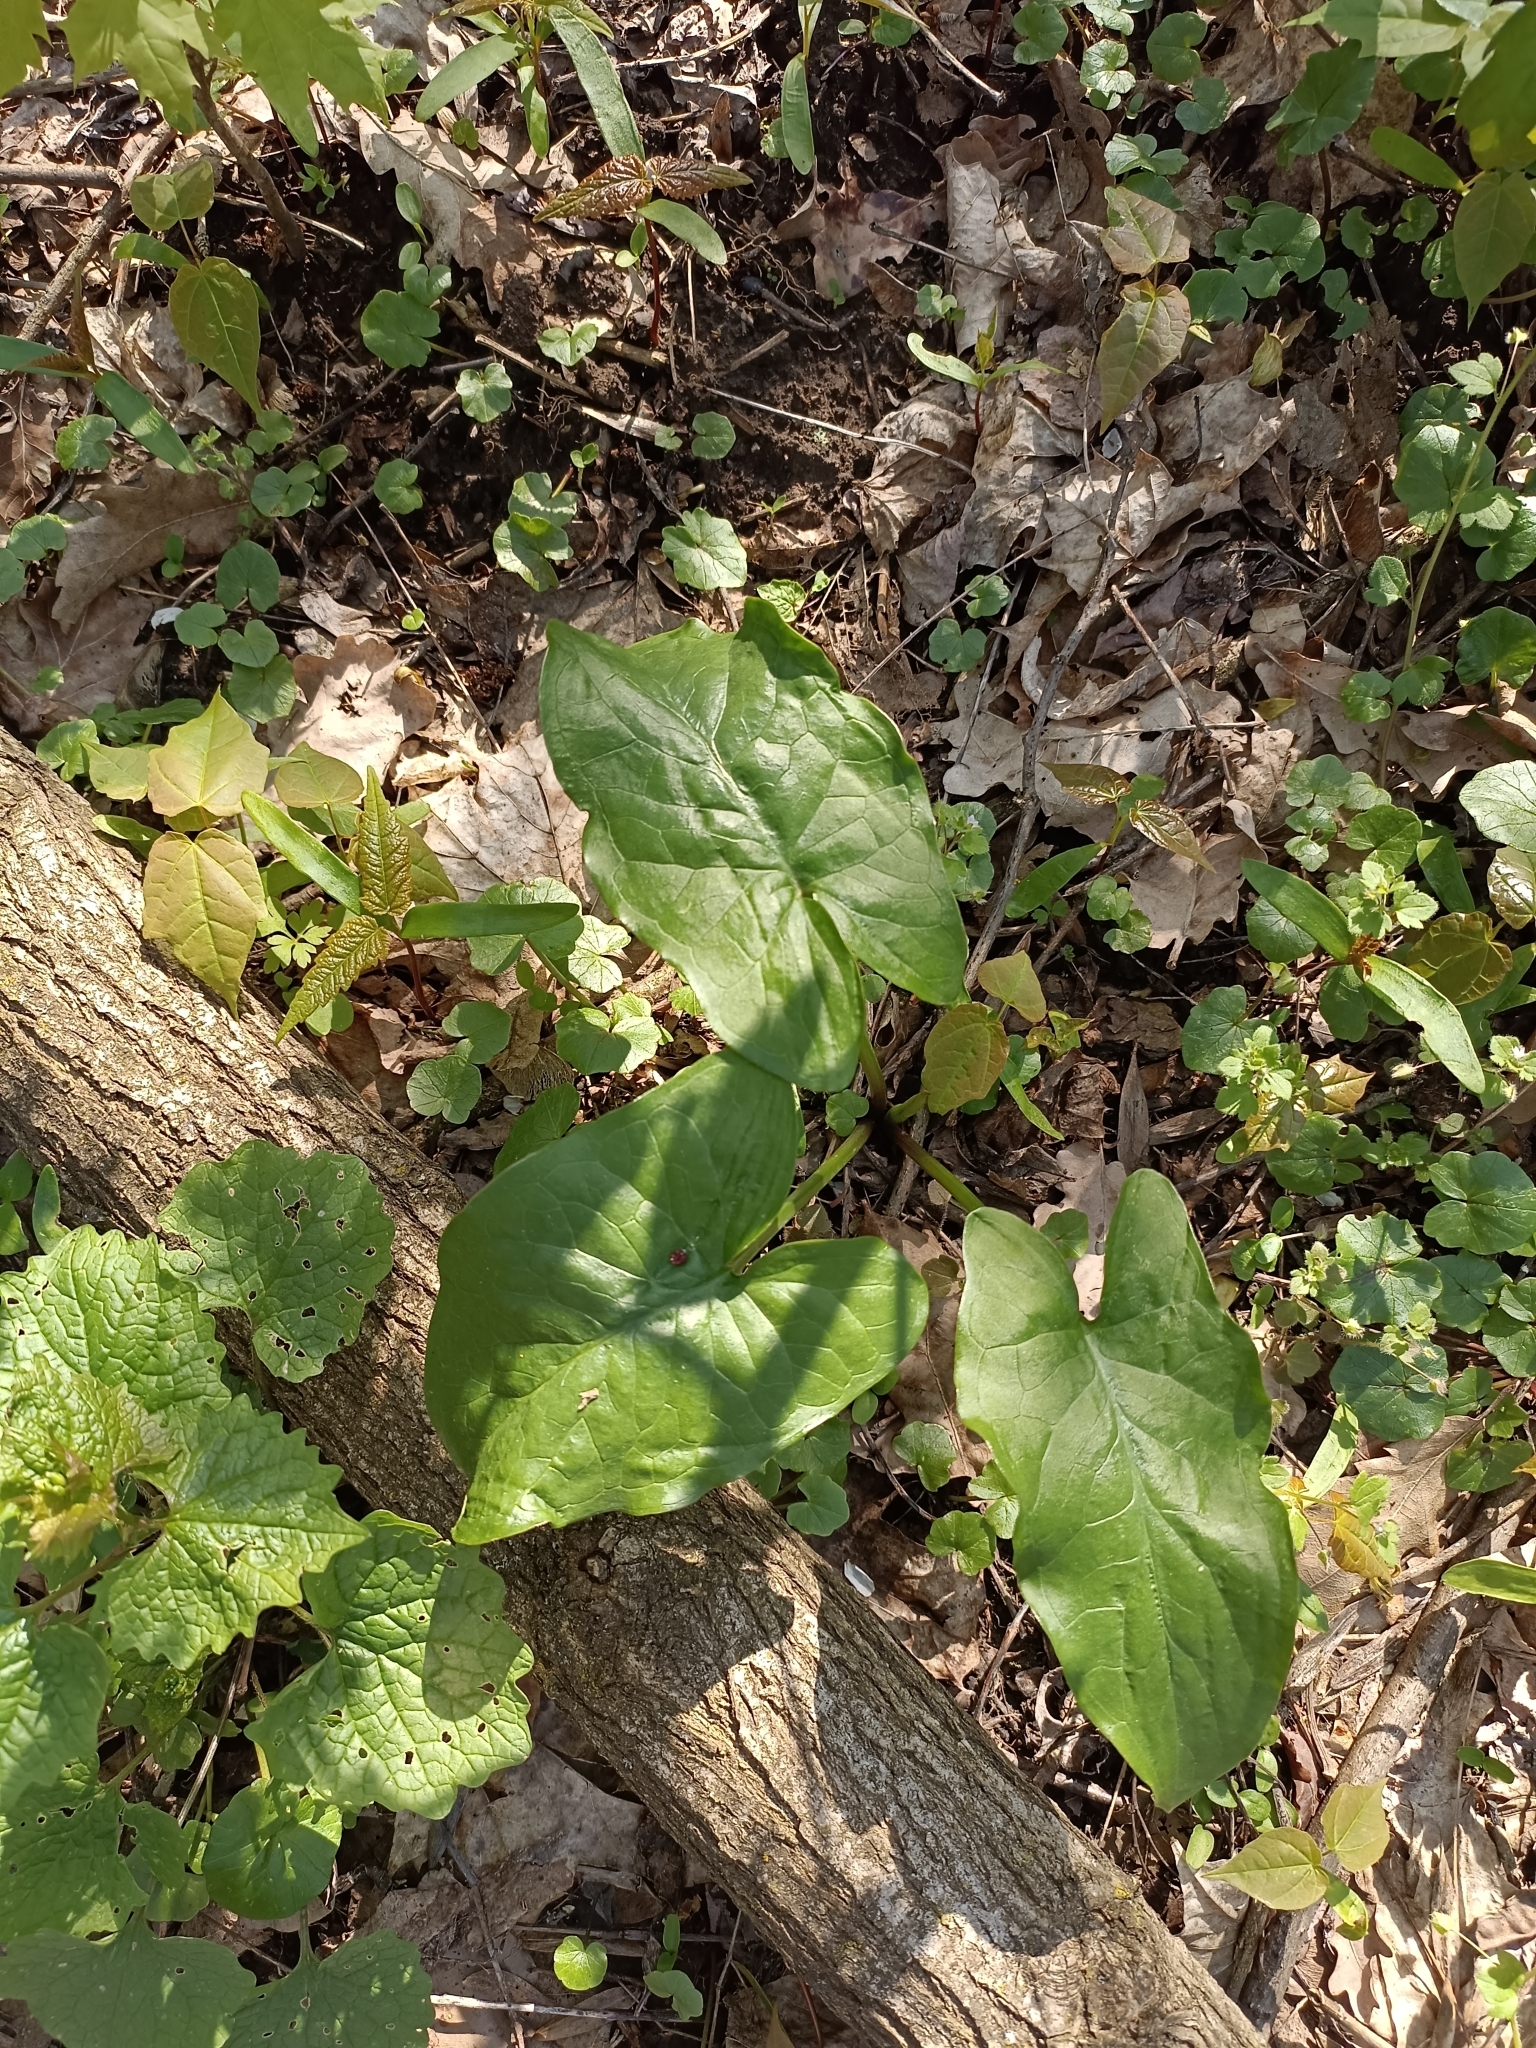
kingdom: Plantae
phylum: Tracheophyta
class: Liliopsida
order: Alismatales
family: Araceae
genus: Arum
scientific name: Arum cylindraceum
